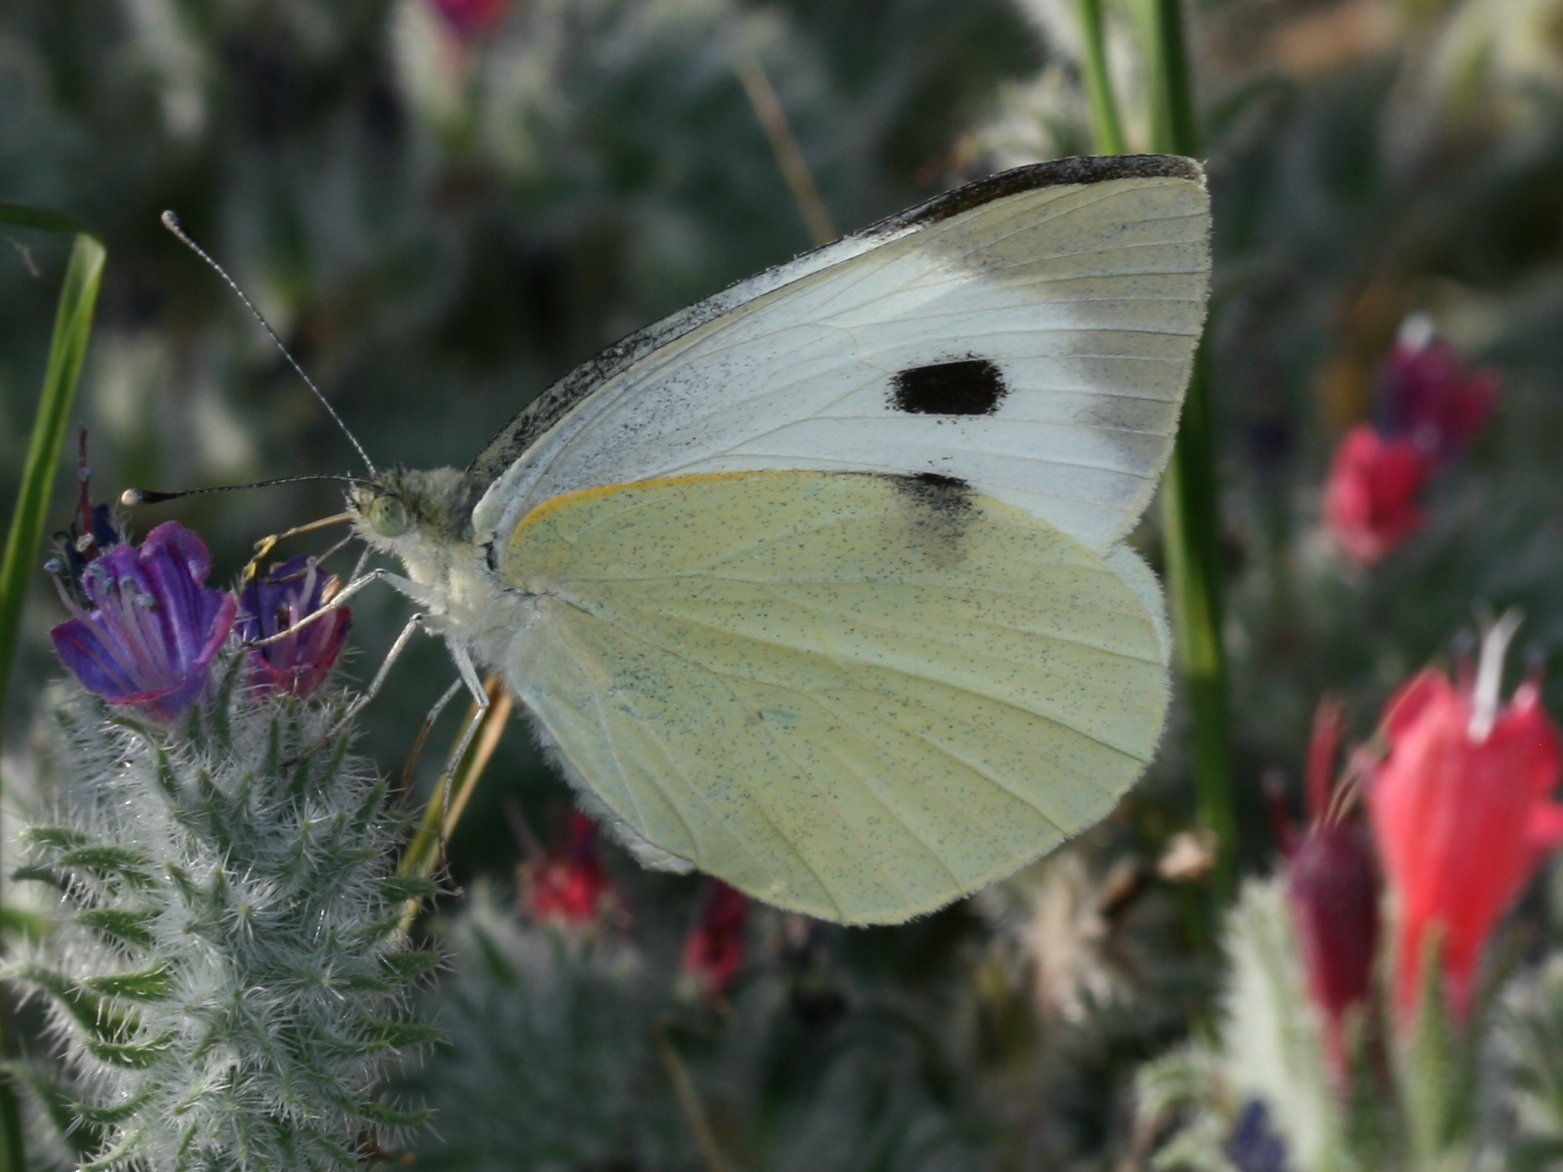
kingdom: Animalia
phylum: Arthropoda
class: Insecta
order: Lepidoptera
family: Pieridae
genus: Pieris
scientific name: Pieris brassicae
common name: Large white
